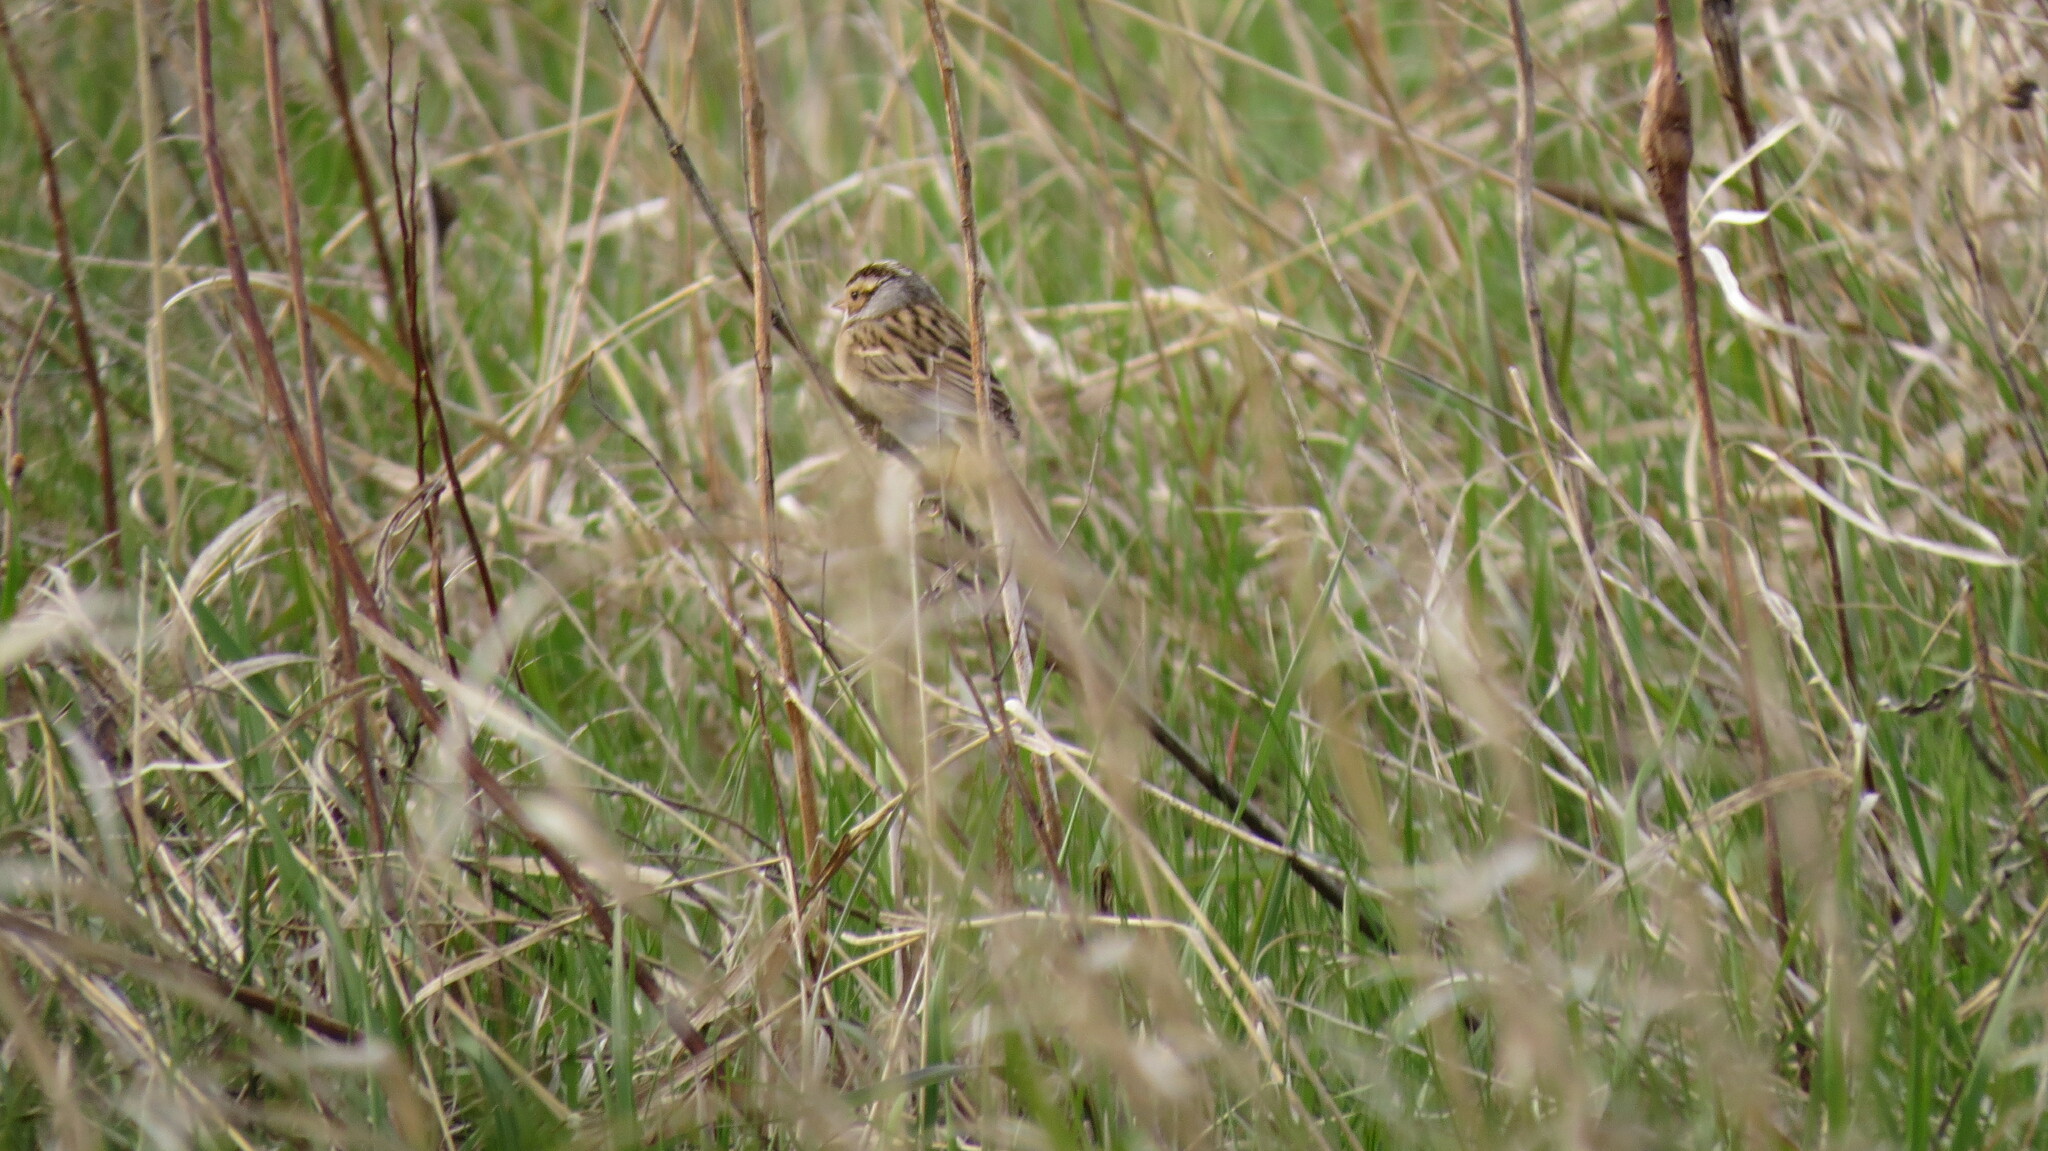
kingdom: Animalia
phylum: Chordata
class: Aves
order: Passeriformes
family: Passerellidae
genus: Spizella
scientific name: Spizella pallida
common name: Clay-colored sparrow
